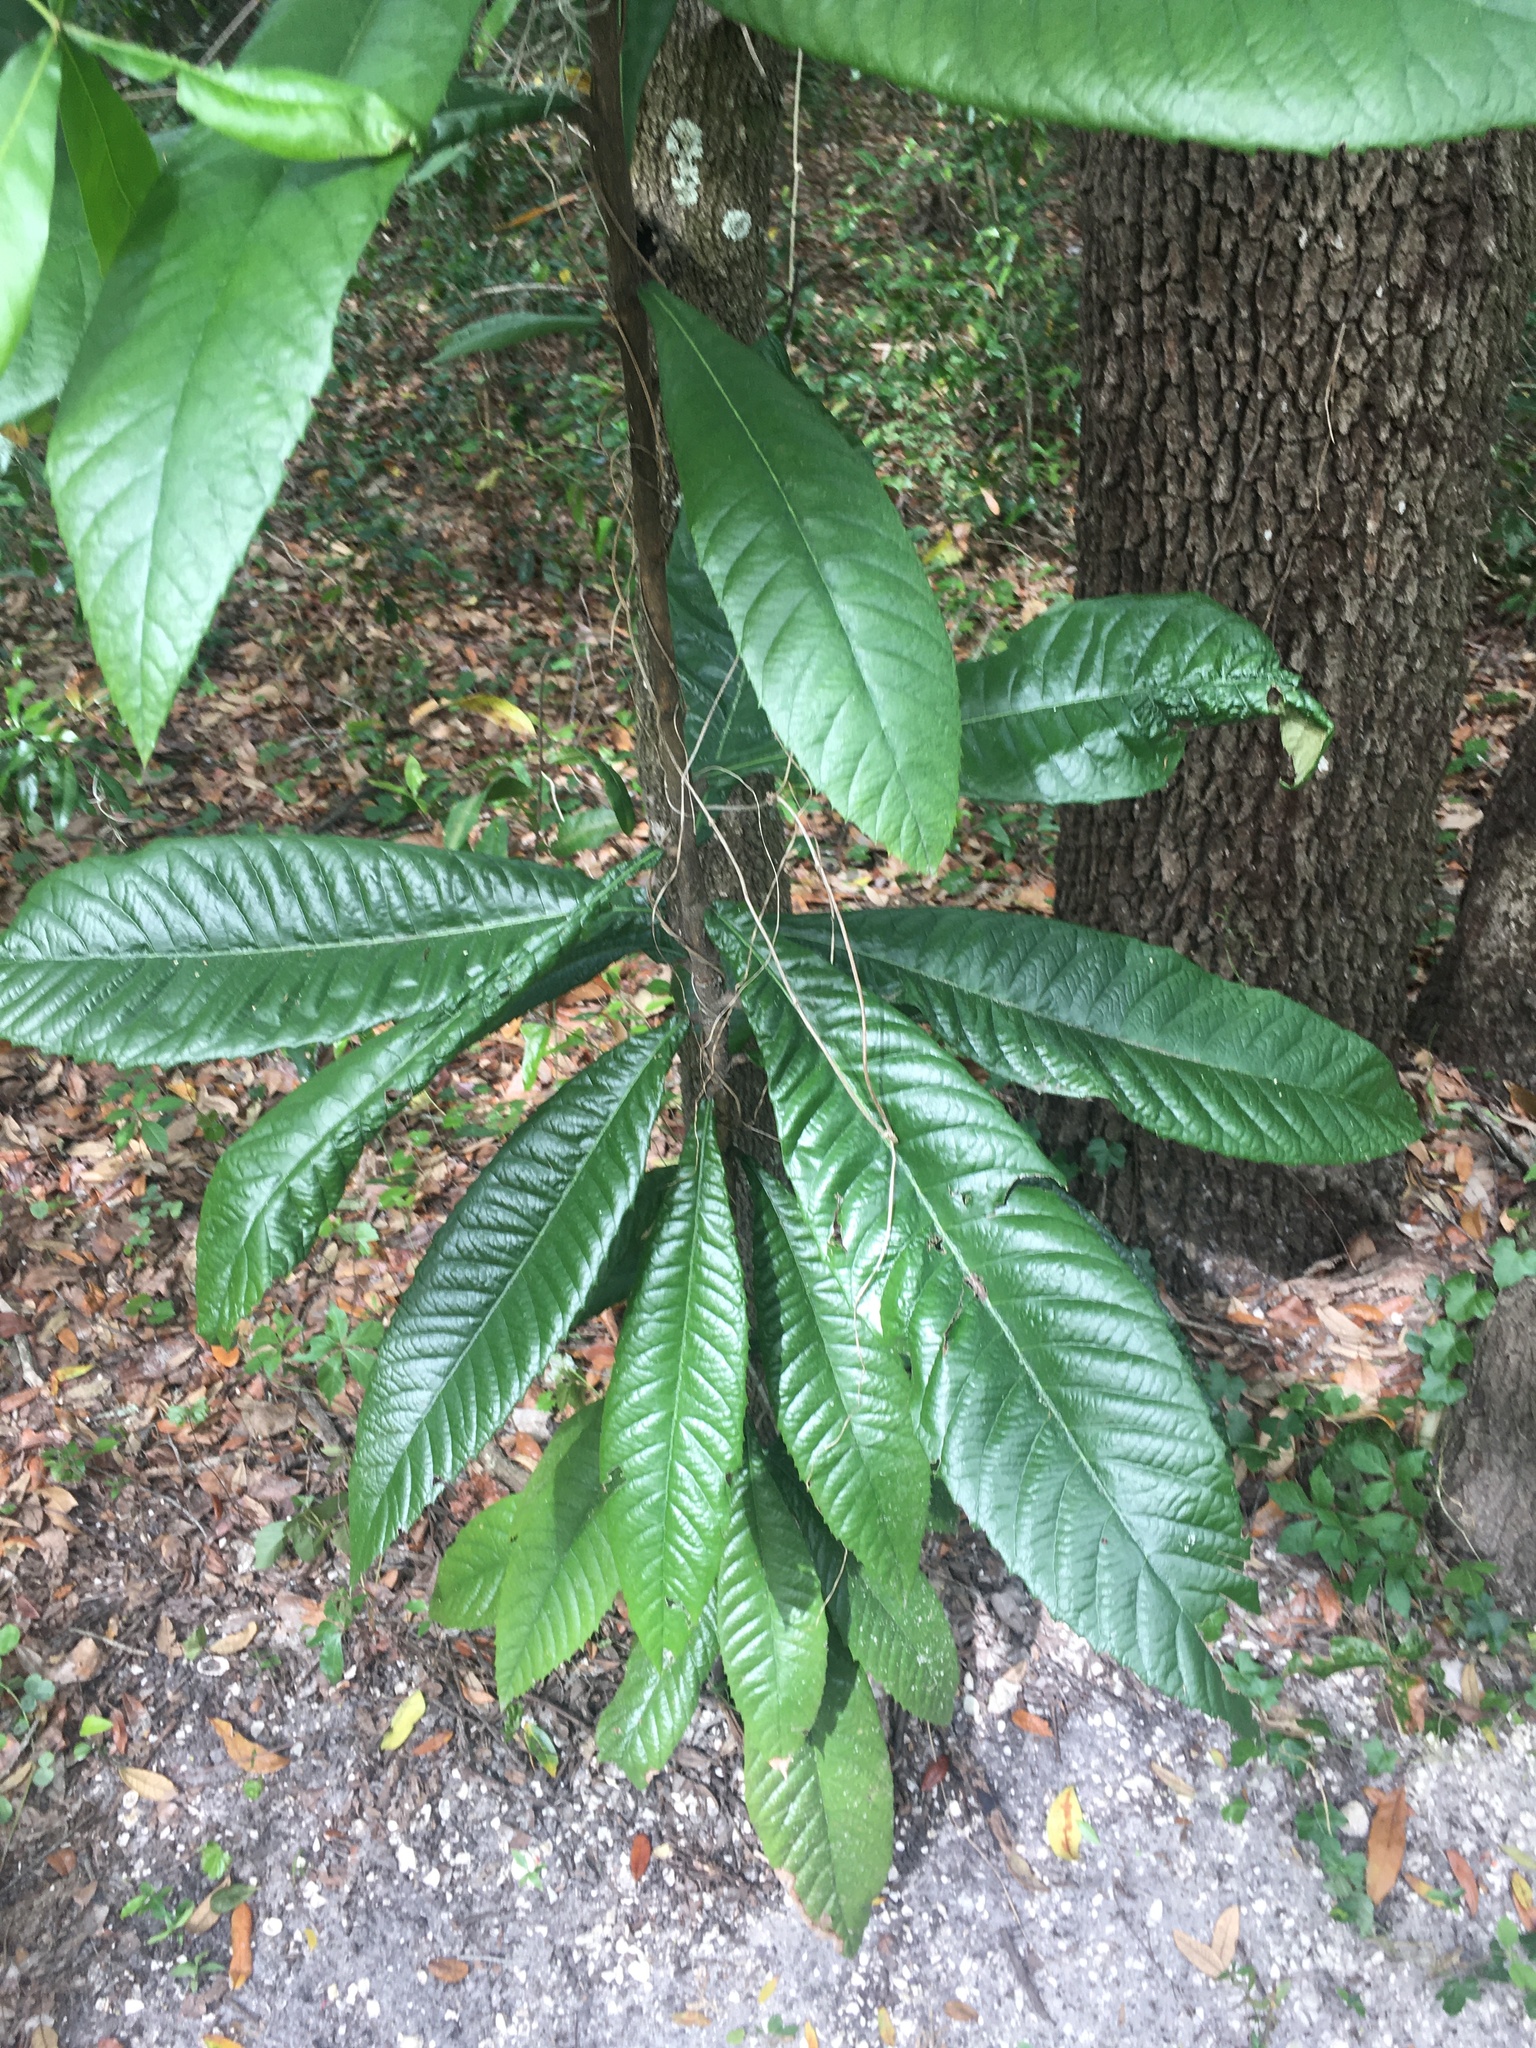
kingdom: Plantae
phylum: Tracheophyta
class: Magnoliopsida
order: Rosales
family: Rosaceae
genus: Rhaphiolepis
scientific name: Rhaphiolepis bibas
